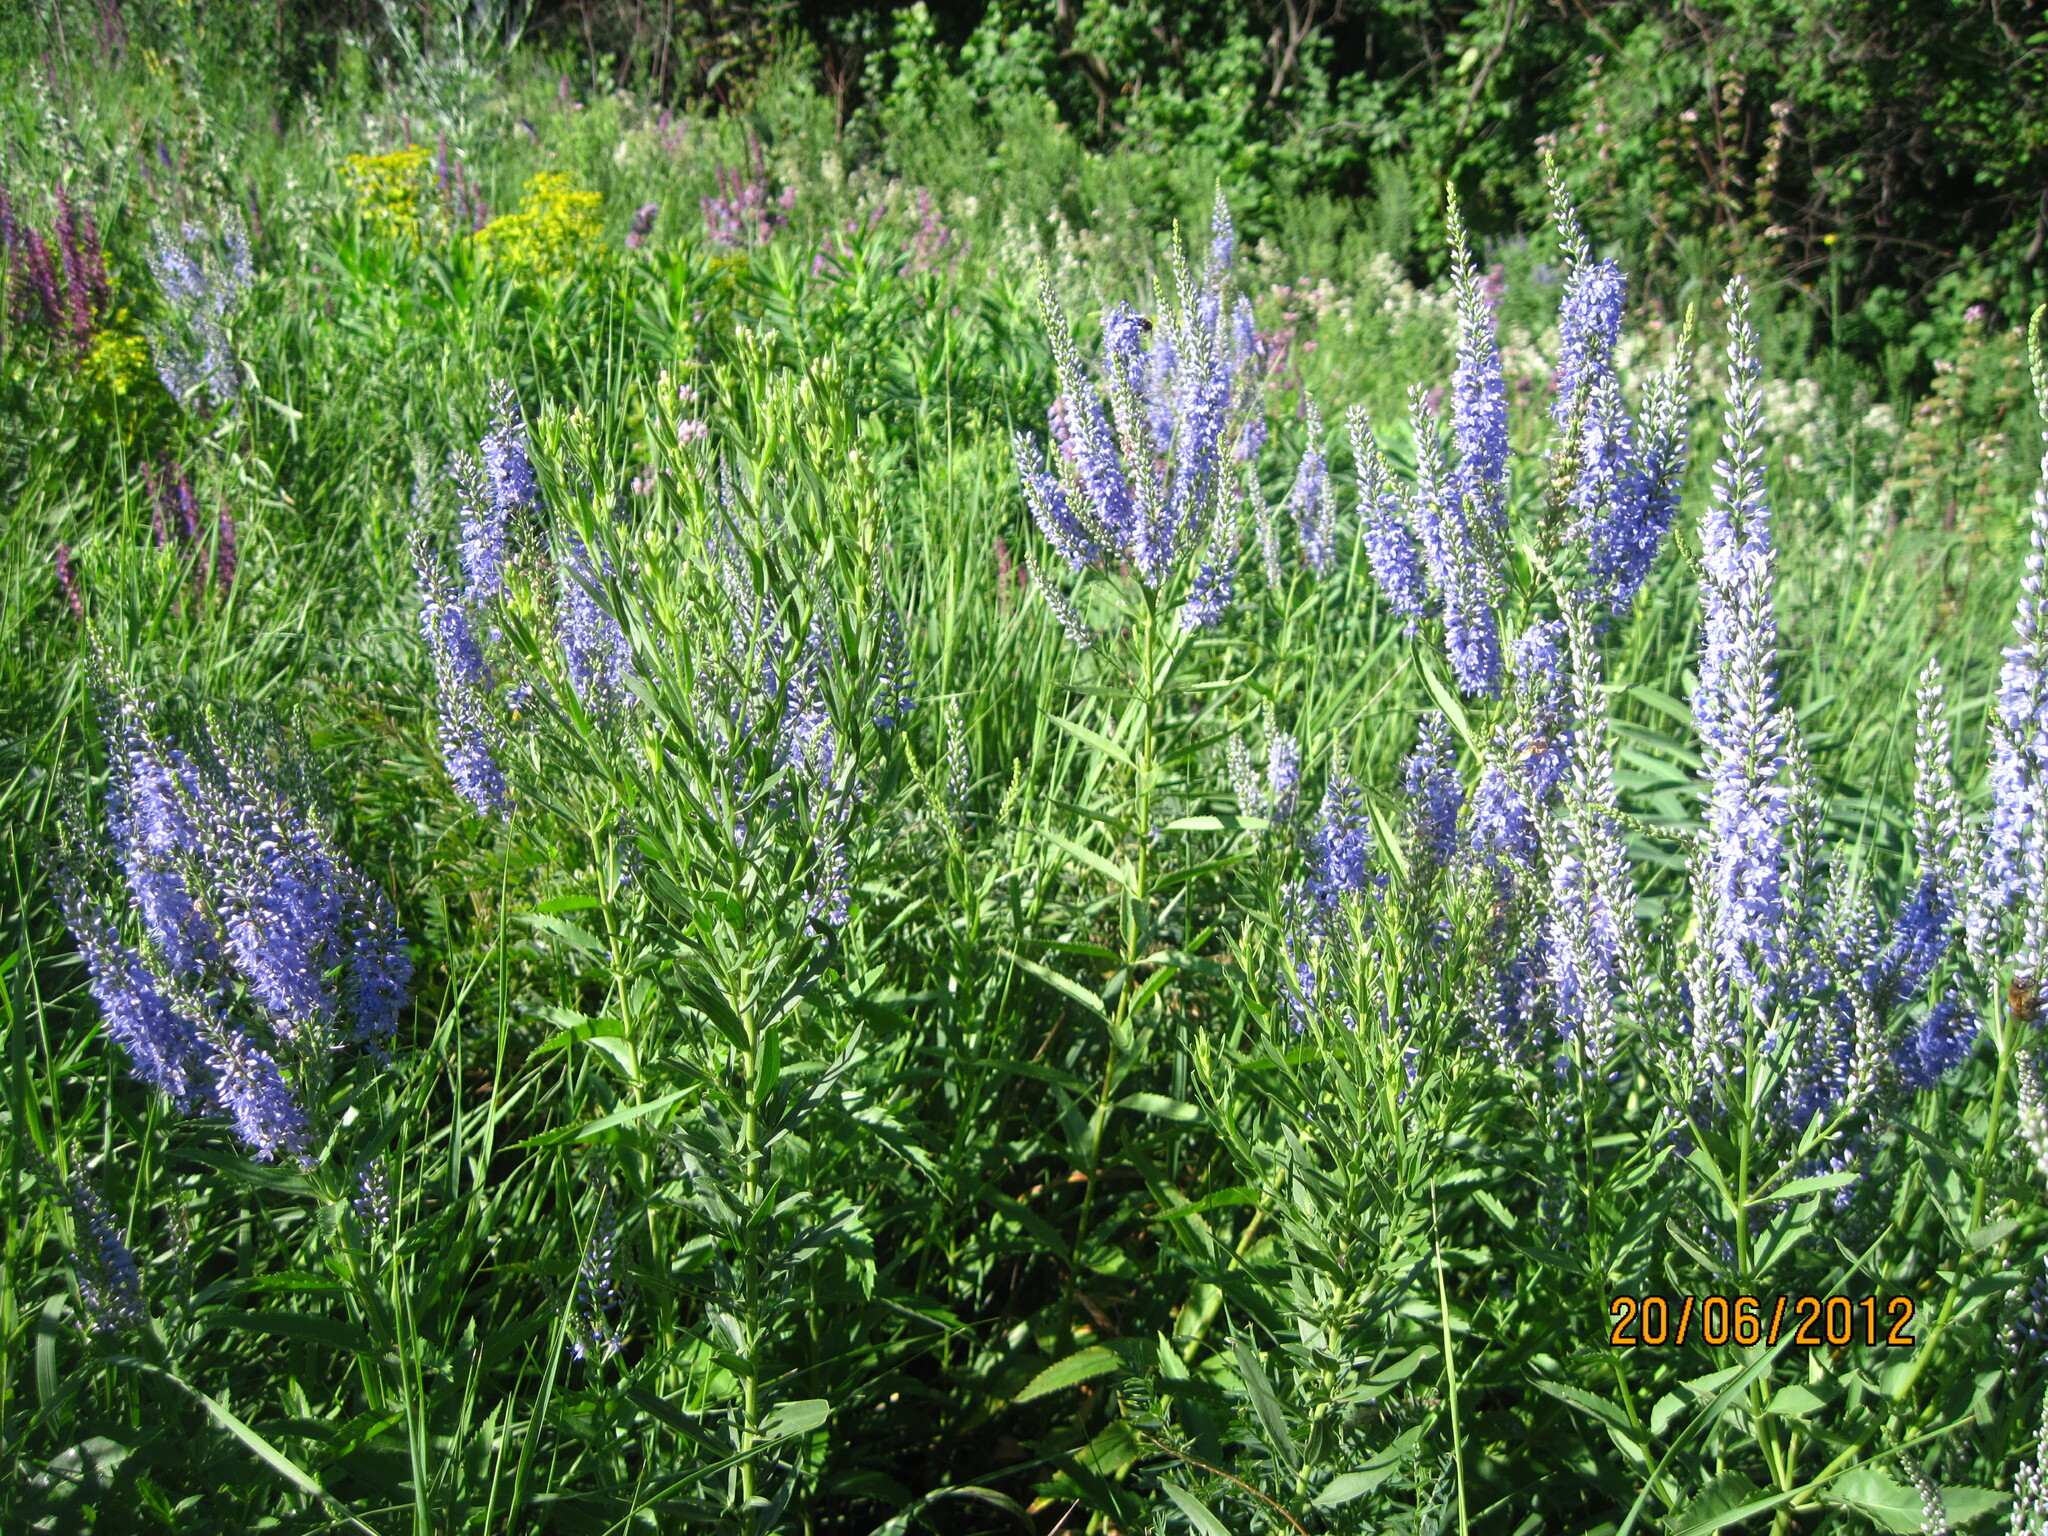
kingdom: Plantae
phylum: Tracheophyta
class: Magnoliopsida
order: Lamiales
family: Plantaginaceae
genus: Veronica
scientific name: Veronica spuria
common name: Bastard speedwell
